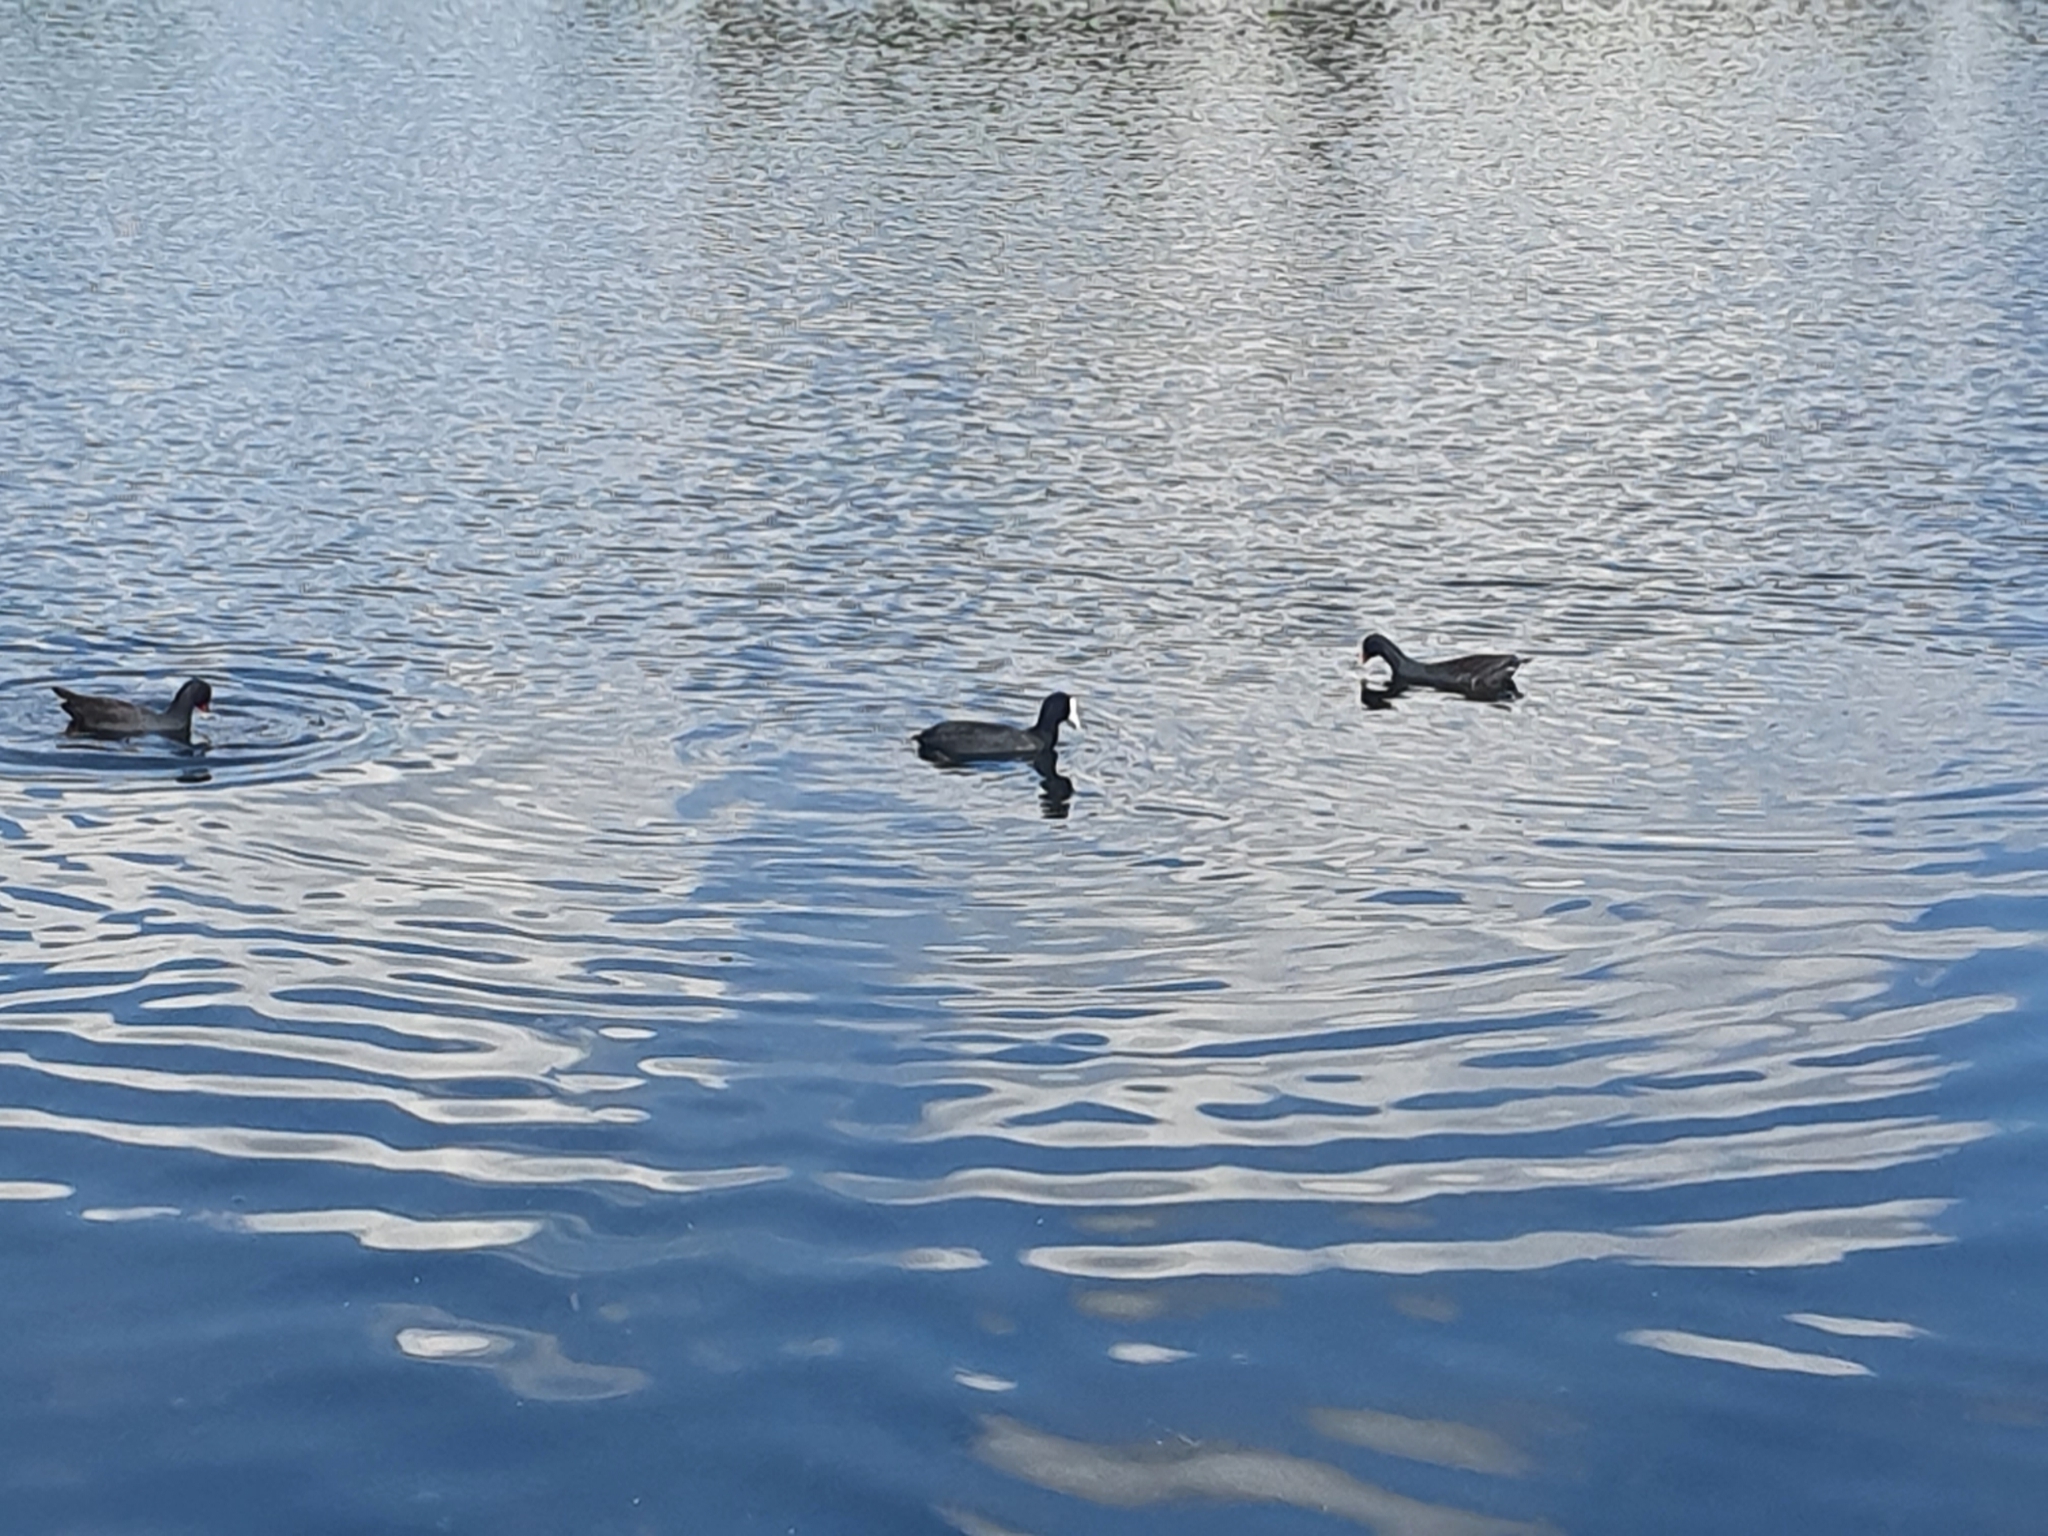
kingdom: Animalia
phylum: Chordata
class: Aves
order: Gruiformes
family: Rallidae
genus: Fulica
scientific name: Fulica atra
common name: Eurasian coot
